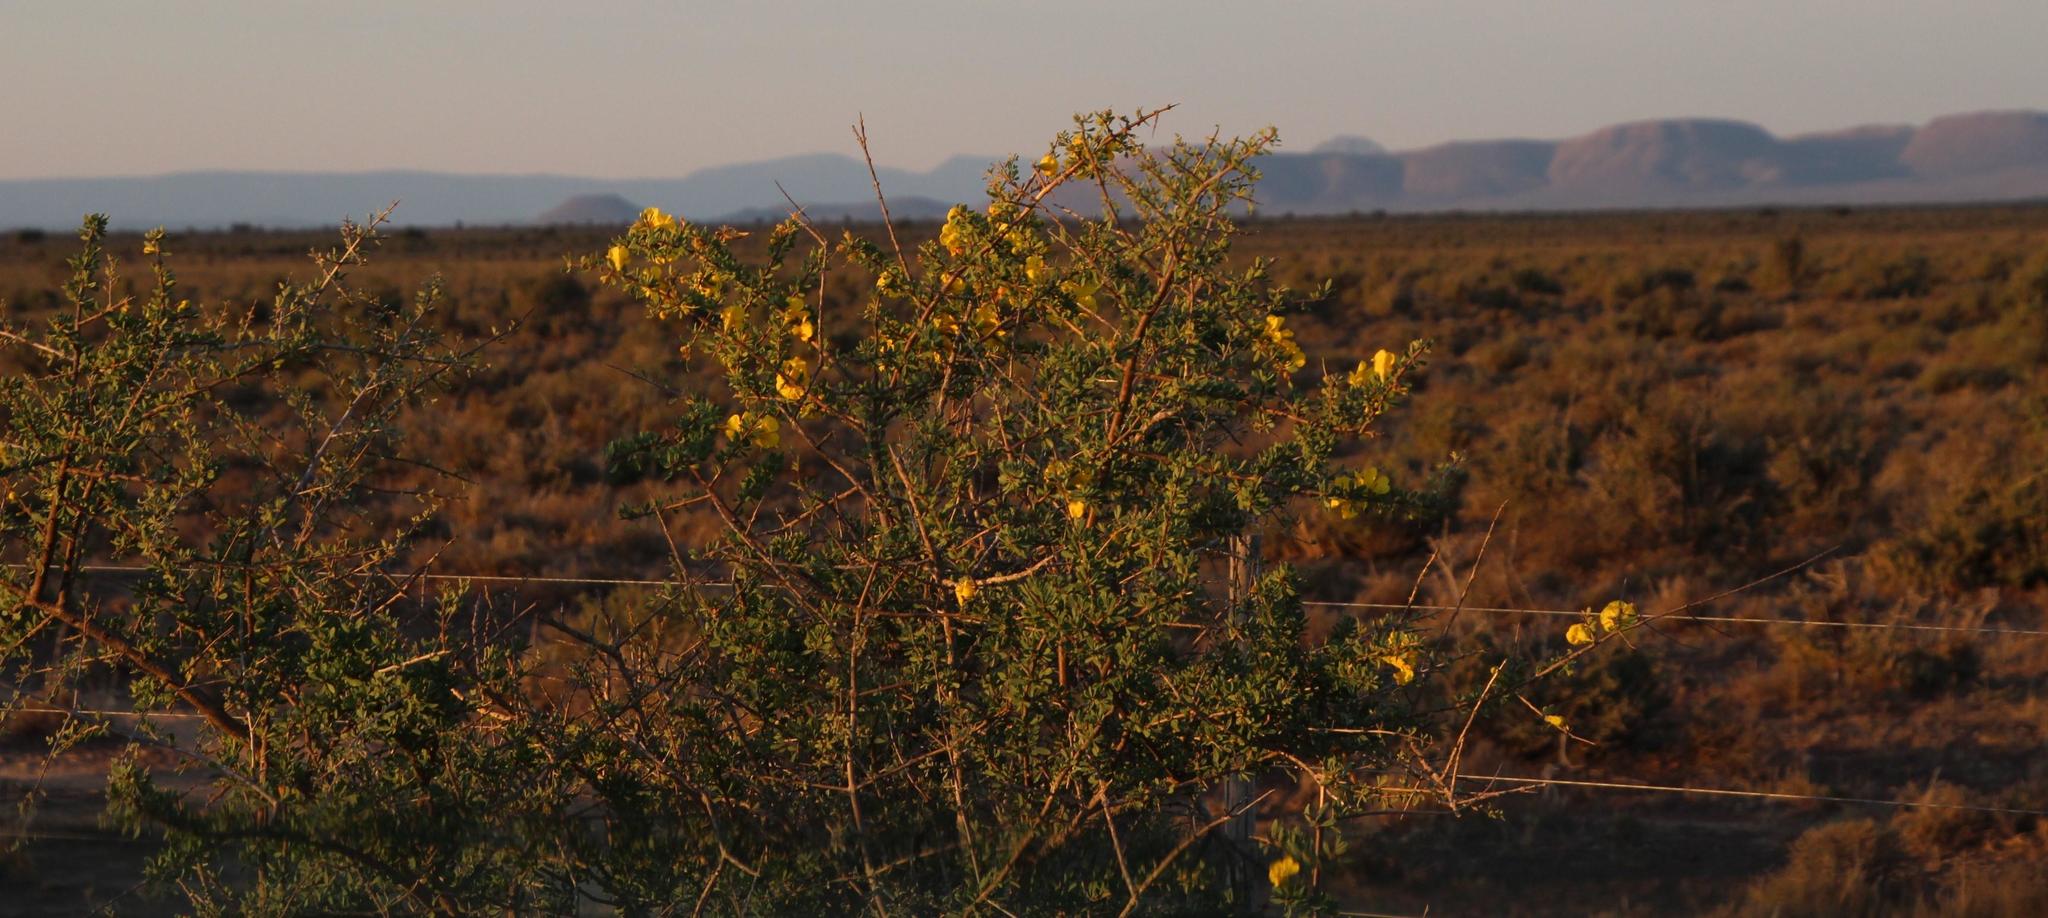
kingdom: Plantae
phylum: Tracheophyta
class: Magnoliopsida
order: Lamiales
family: Bignoniaceae
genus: Rhigozum
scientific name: Rhigozum obovatum
